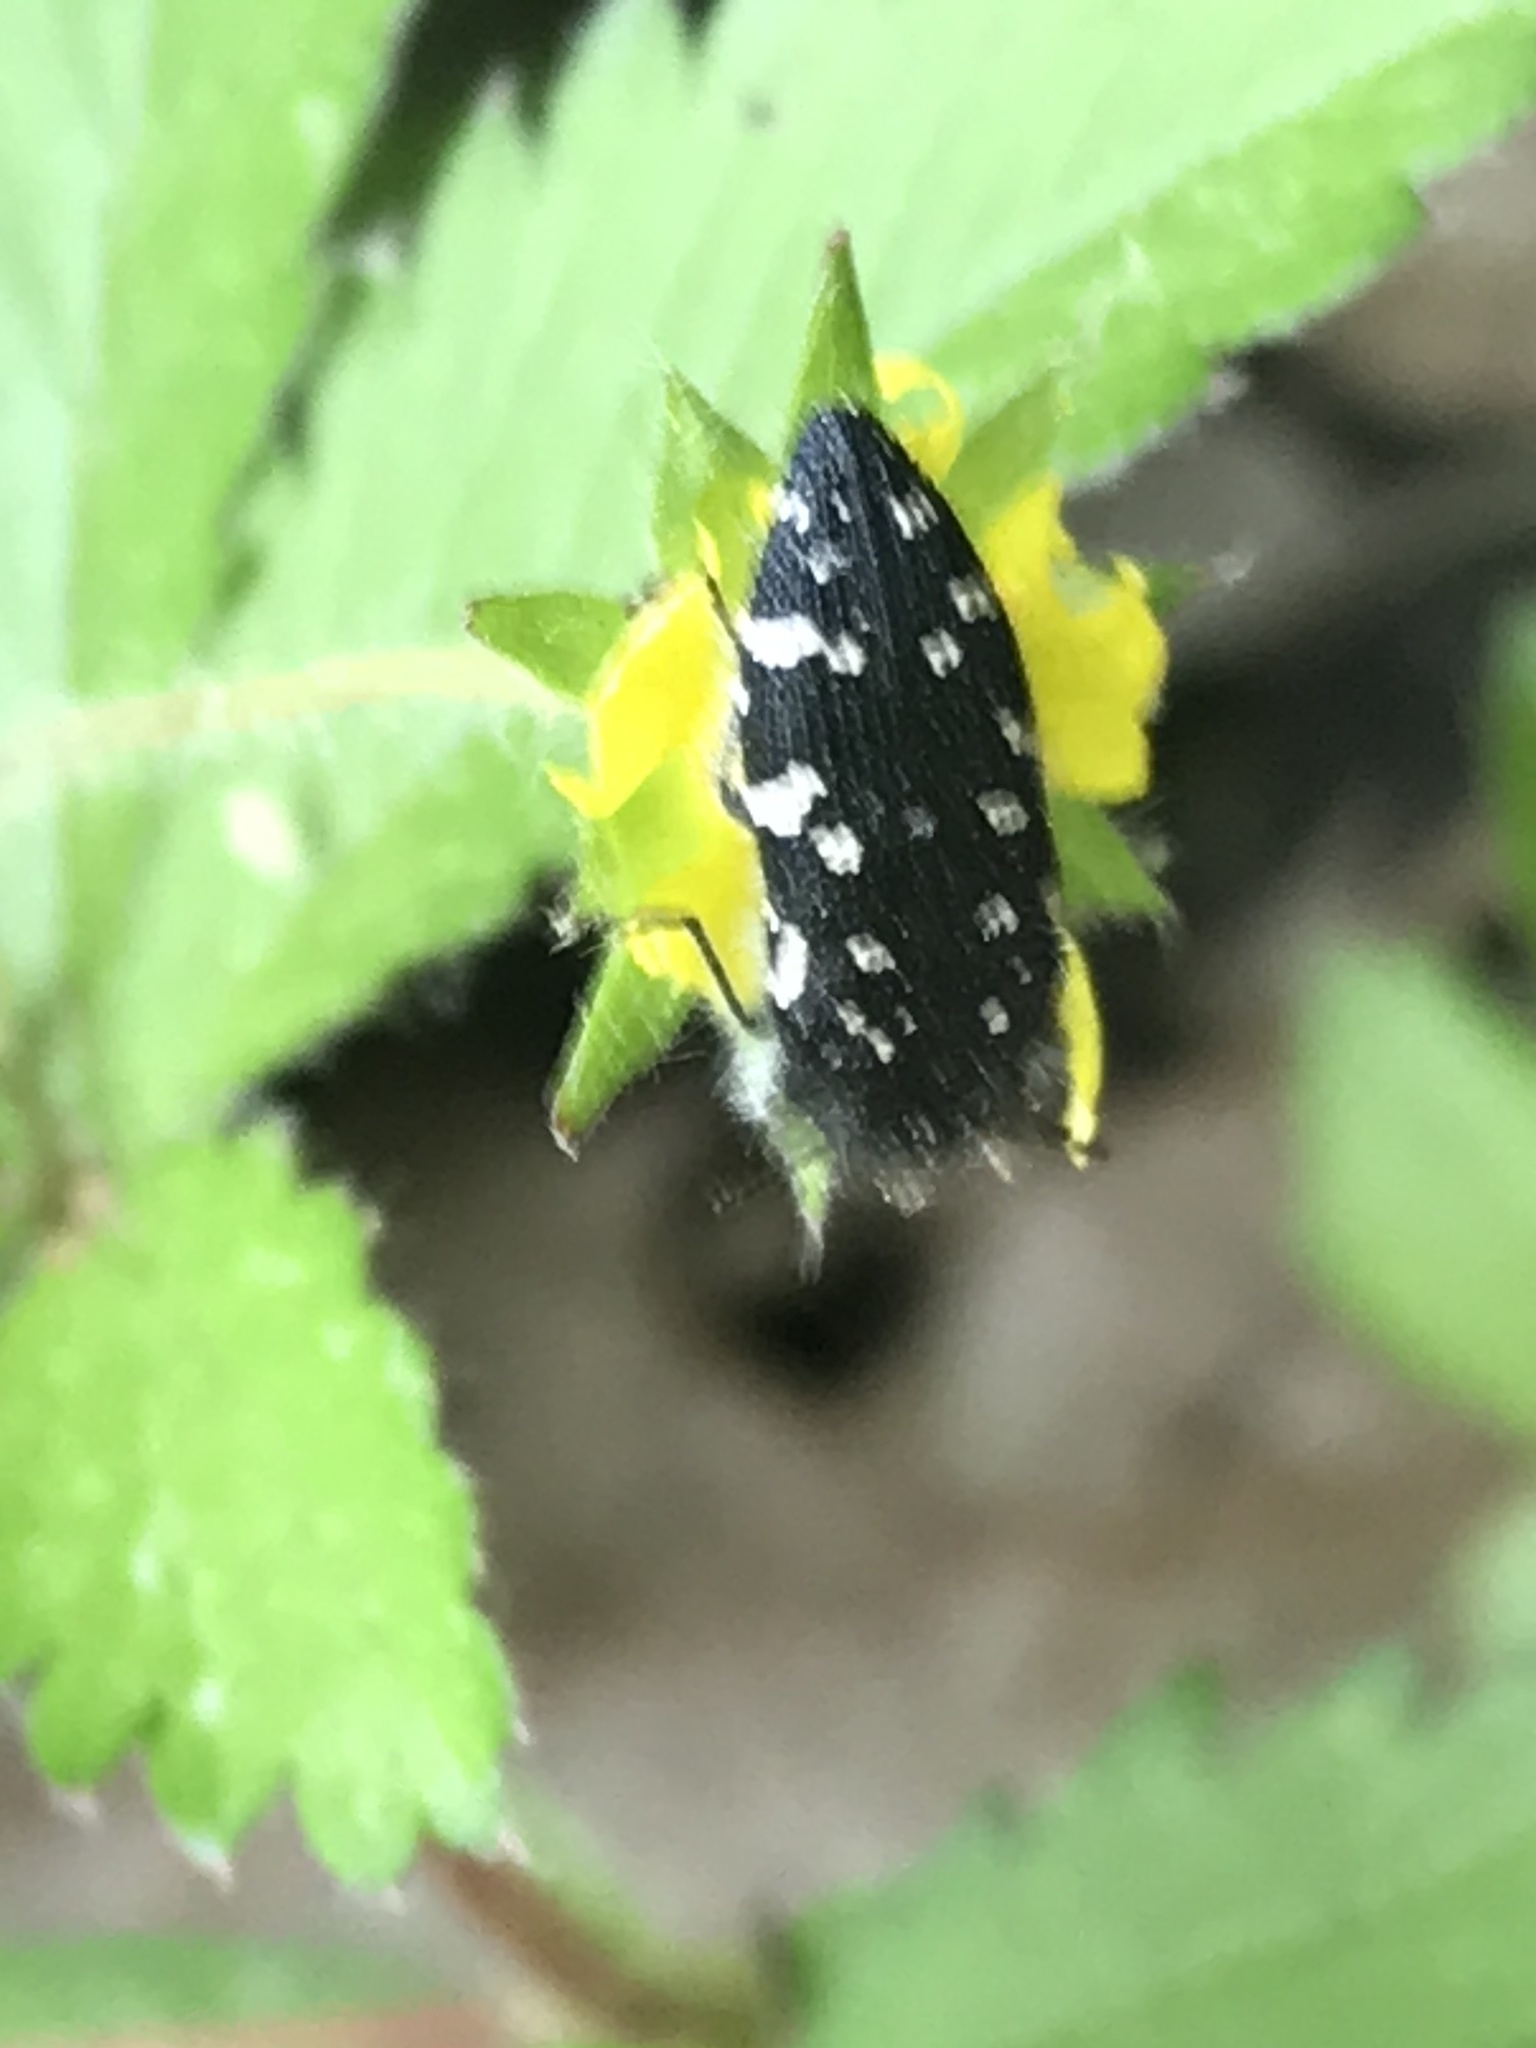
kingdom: Animalia
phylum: Arthropoda
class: Insecta
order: Coleoptera
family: Buprestidae
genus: Acmaeodera
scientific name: Acmaeodera ornata
